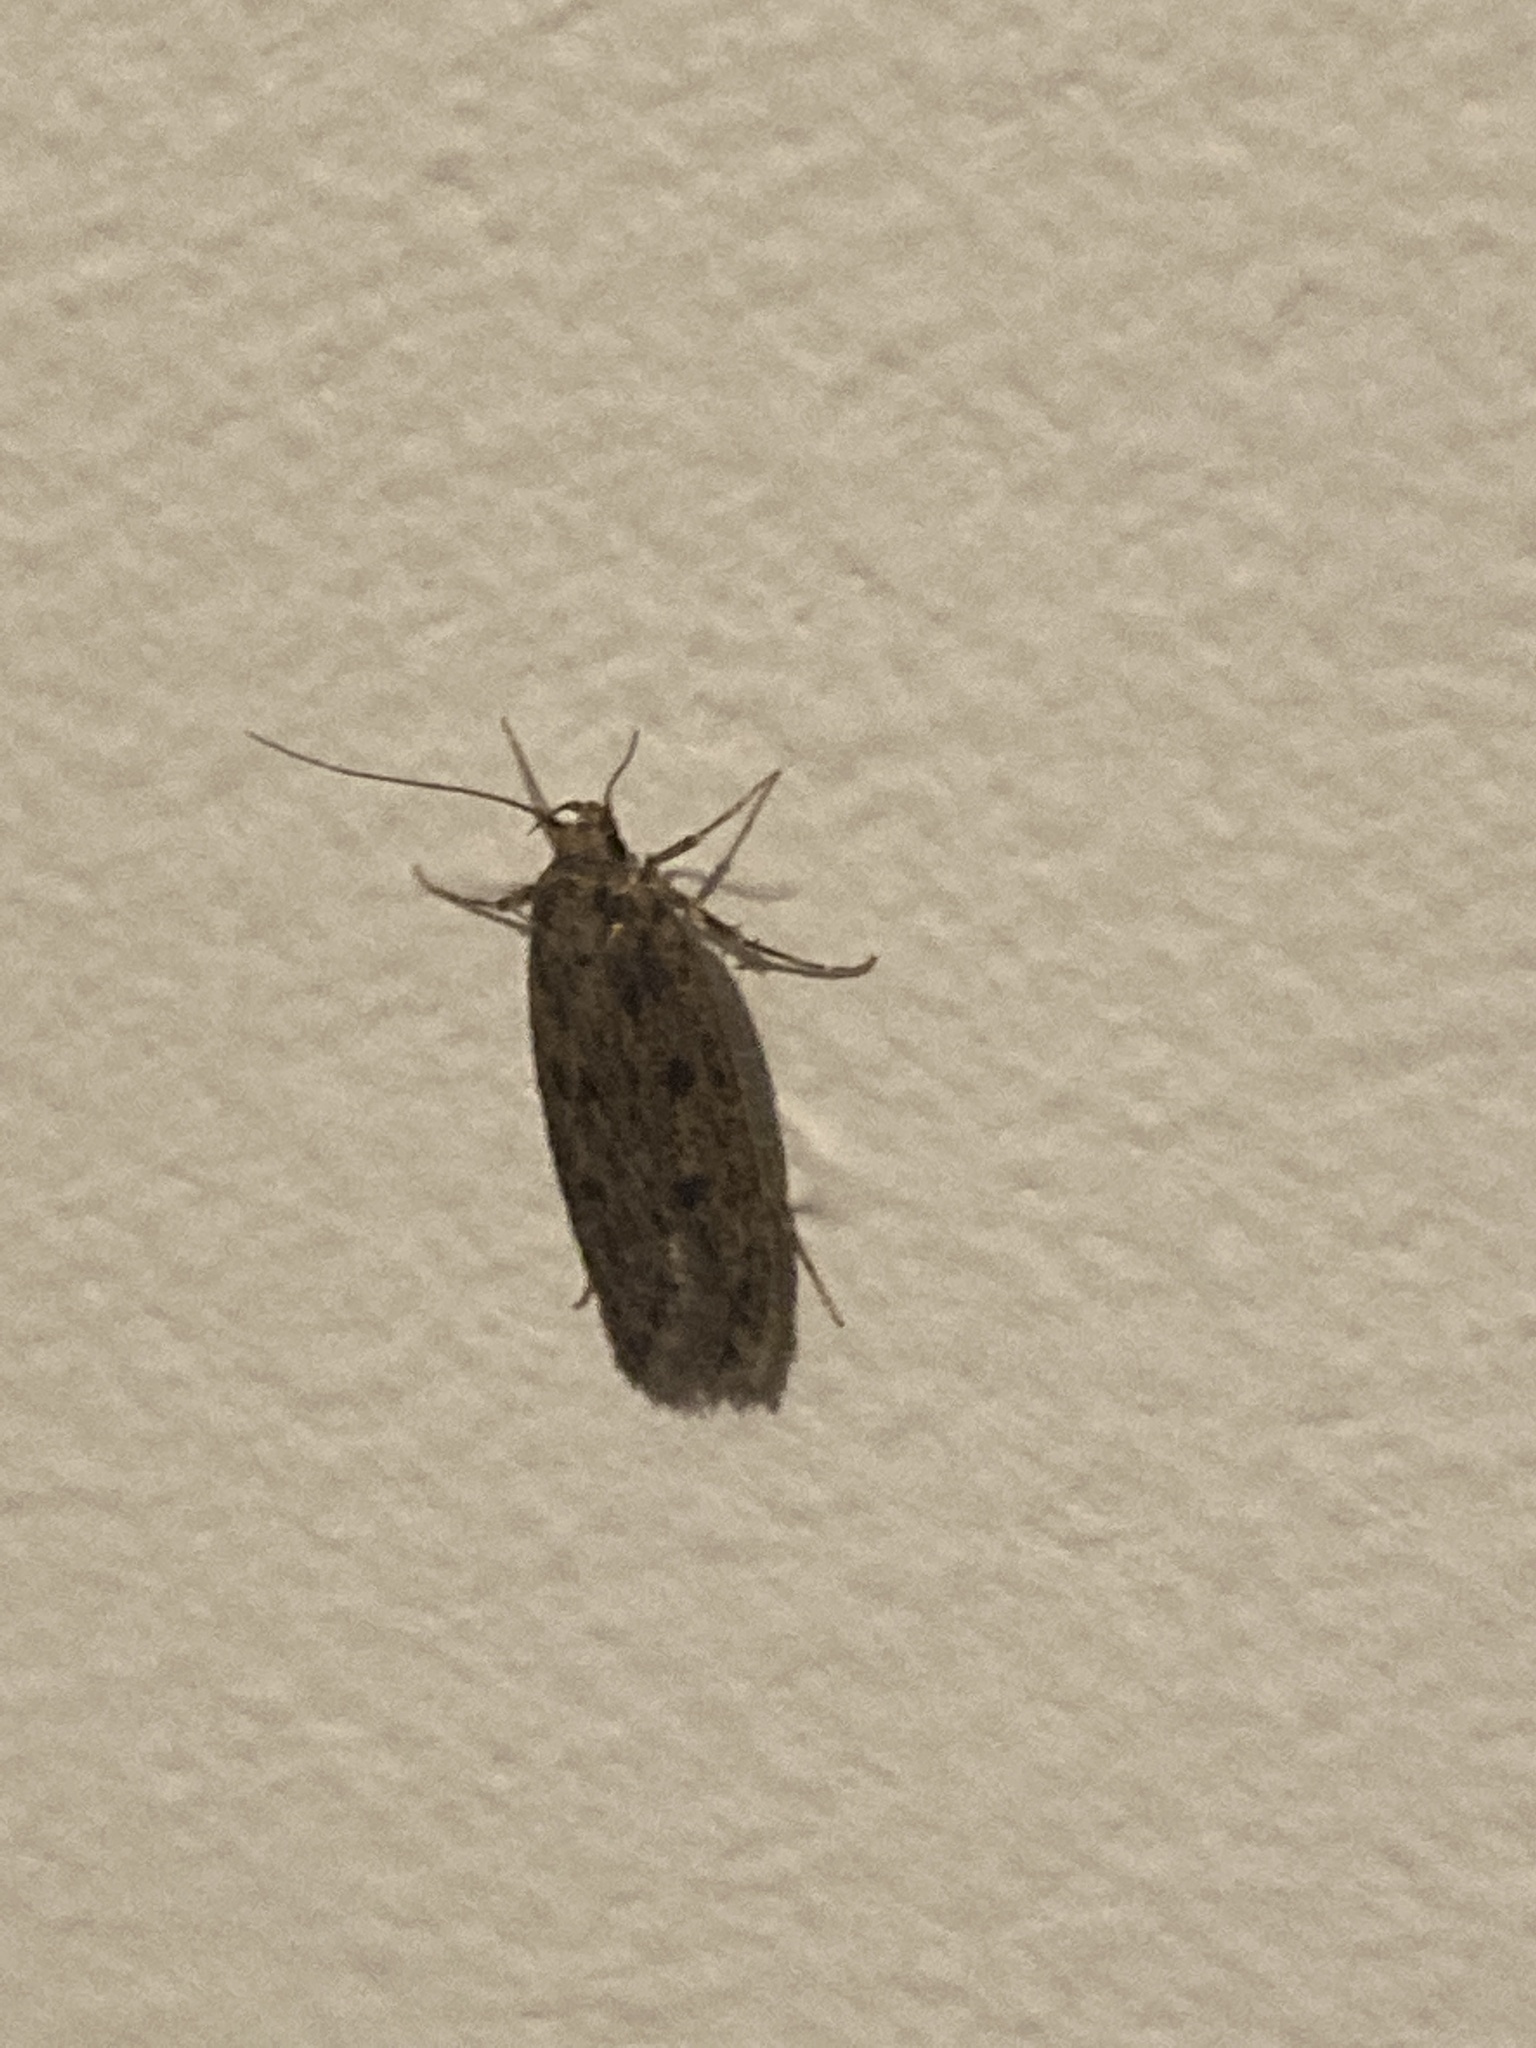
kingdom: Animalia
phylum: Arthropoda
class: Insecta
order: Lepidoptera
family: Oecophoridae
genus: Hofmannophila
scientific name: Hofmannophila pseudospretella
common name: Brown house moth
